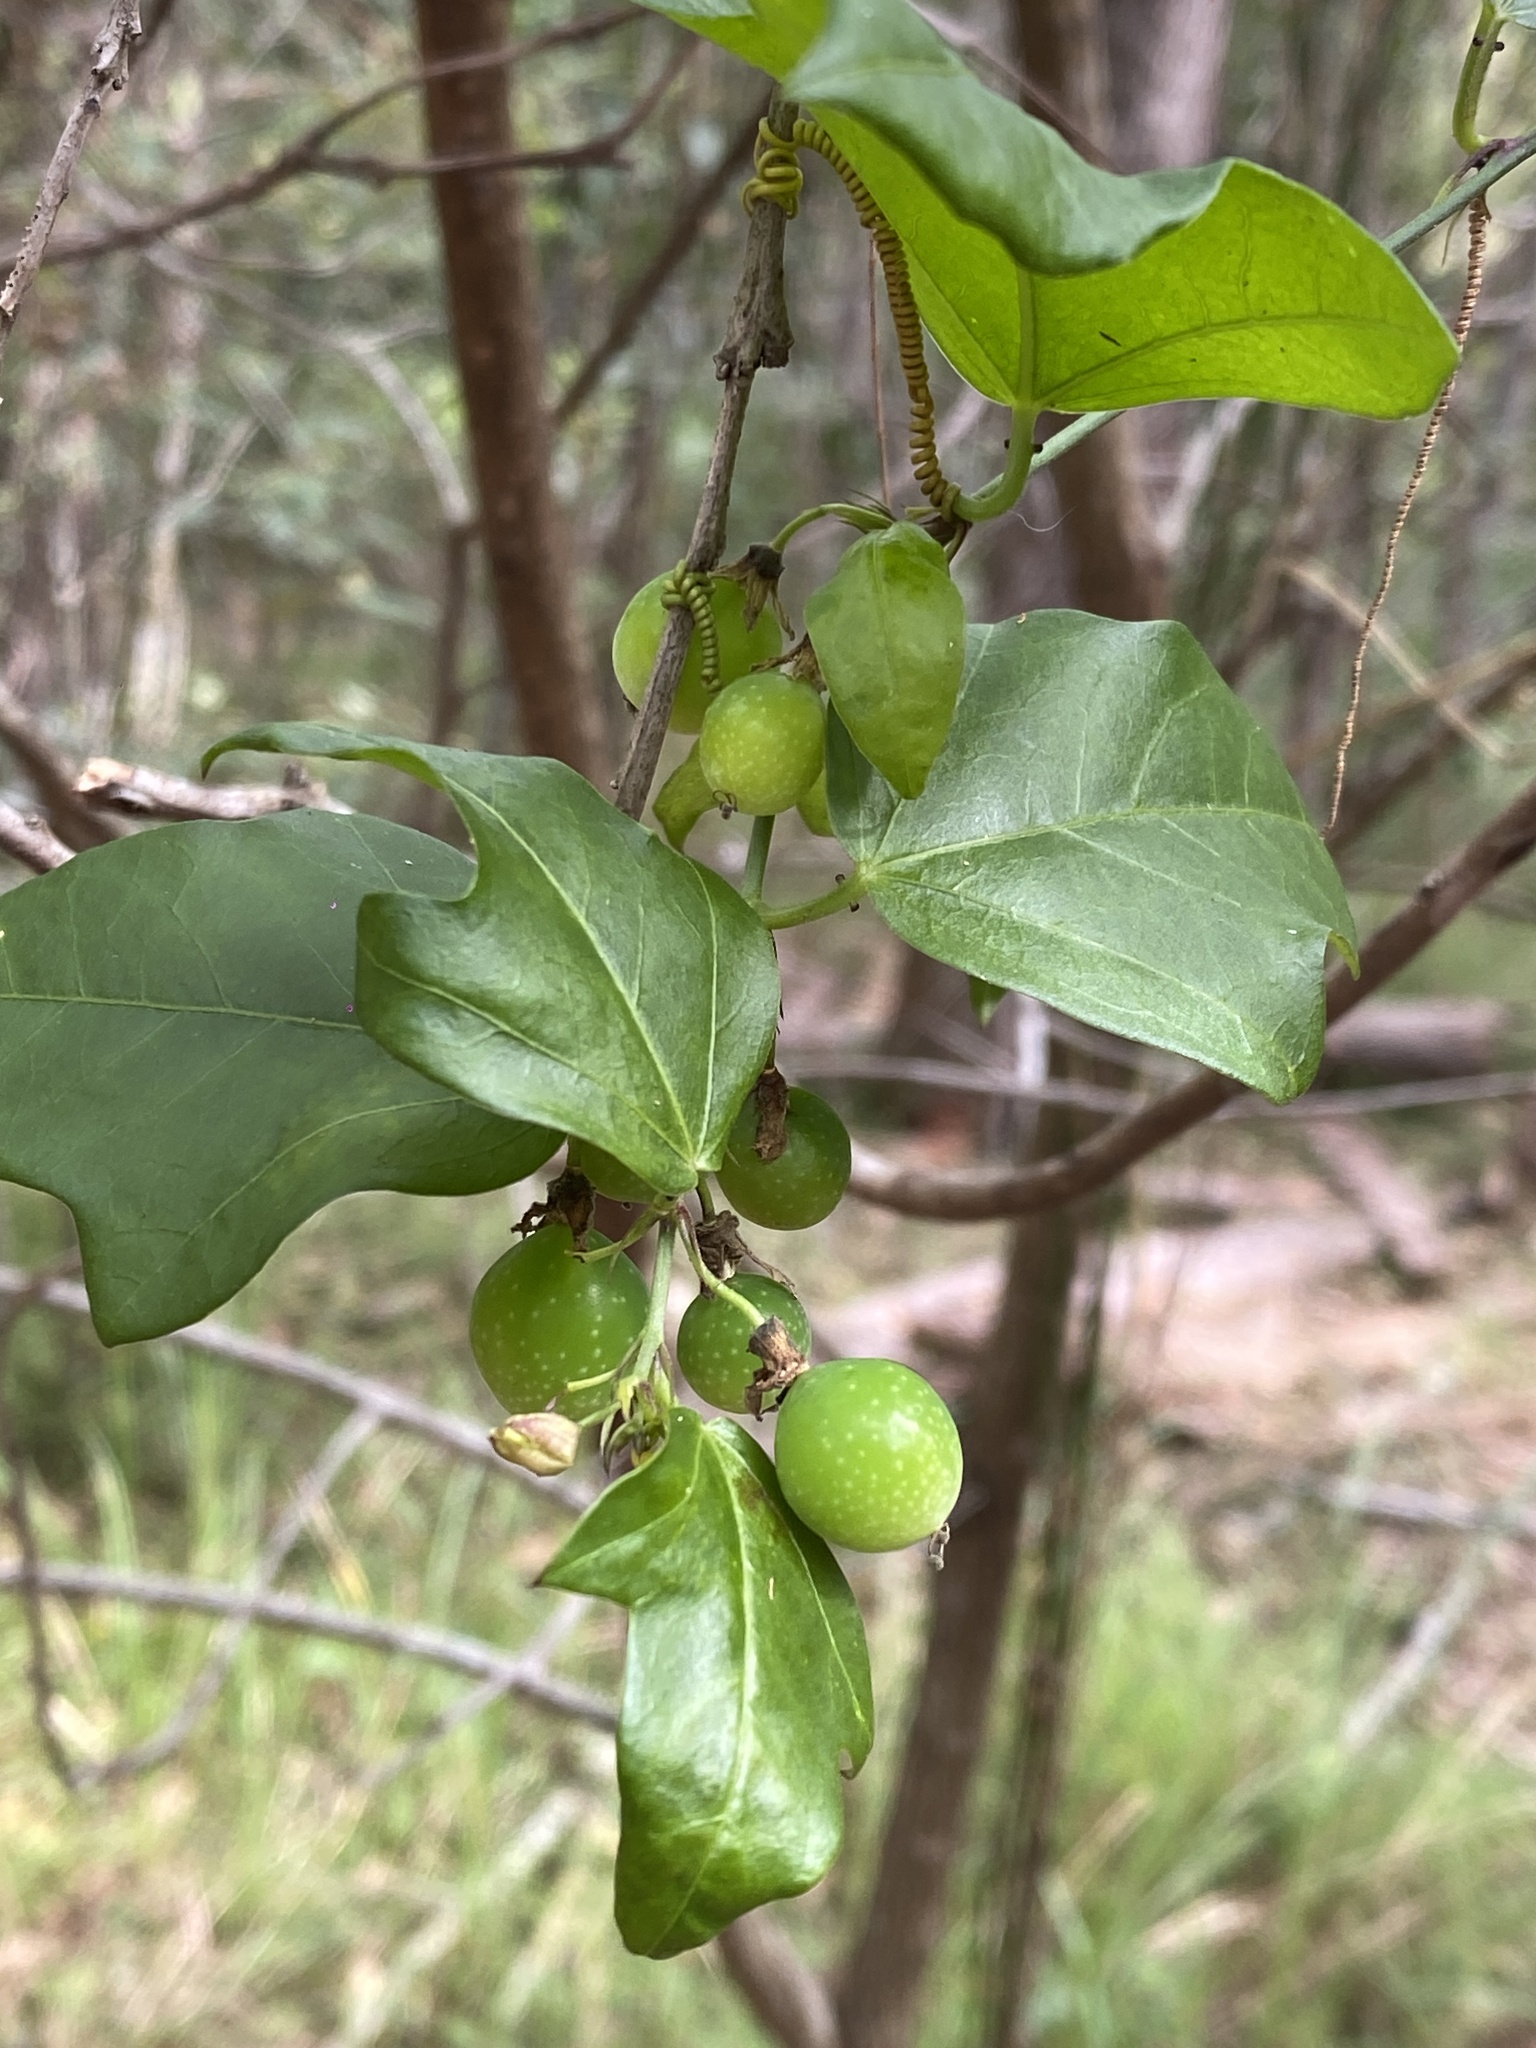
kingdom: Plantae
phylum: Tracheophyta
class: Magnoliopsida
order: Malpighiales
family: Passifloraceae
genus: Passiflora
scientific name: Passiflora pallida
